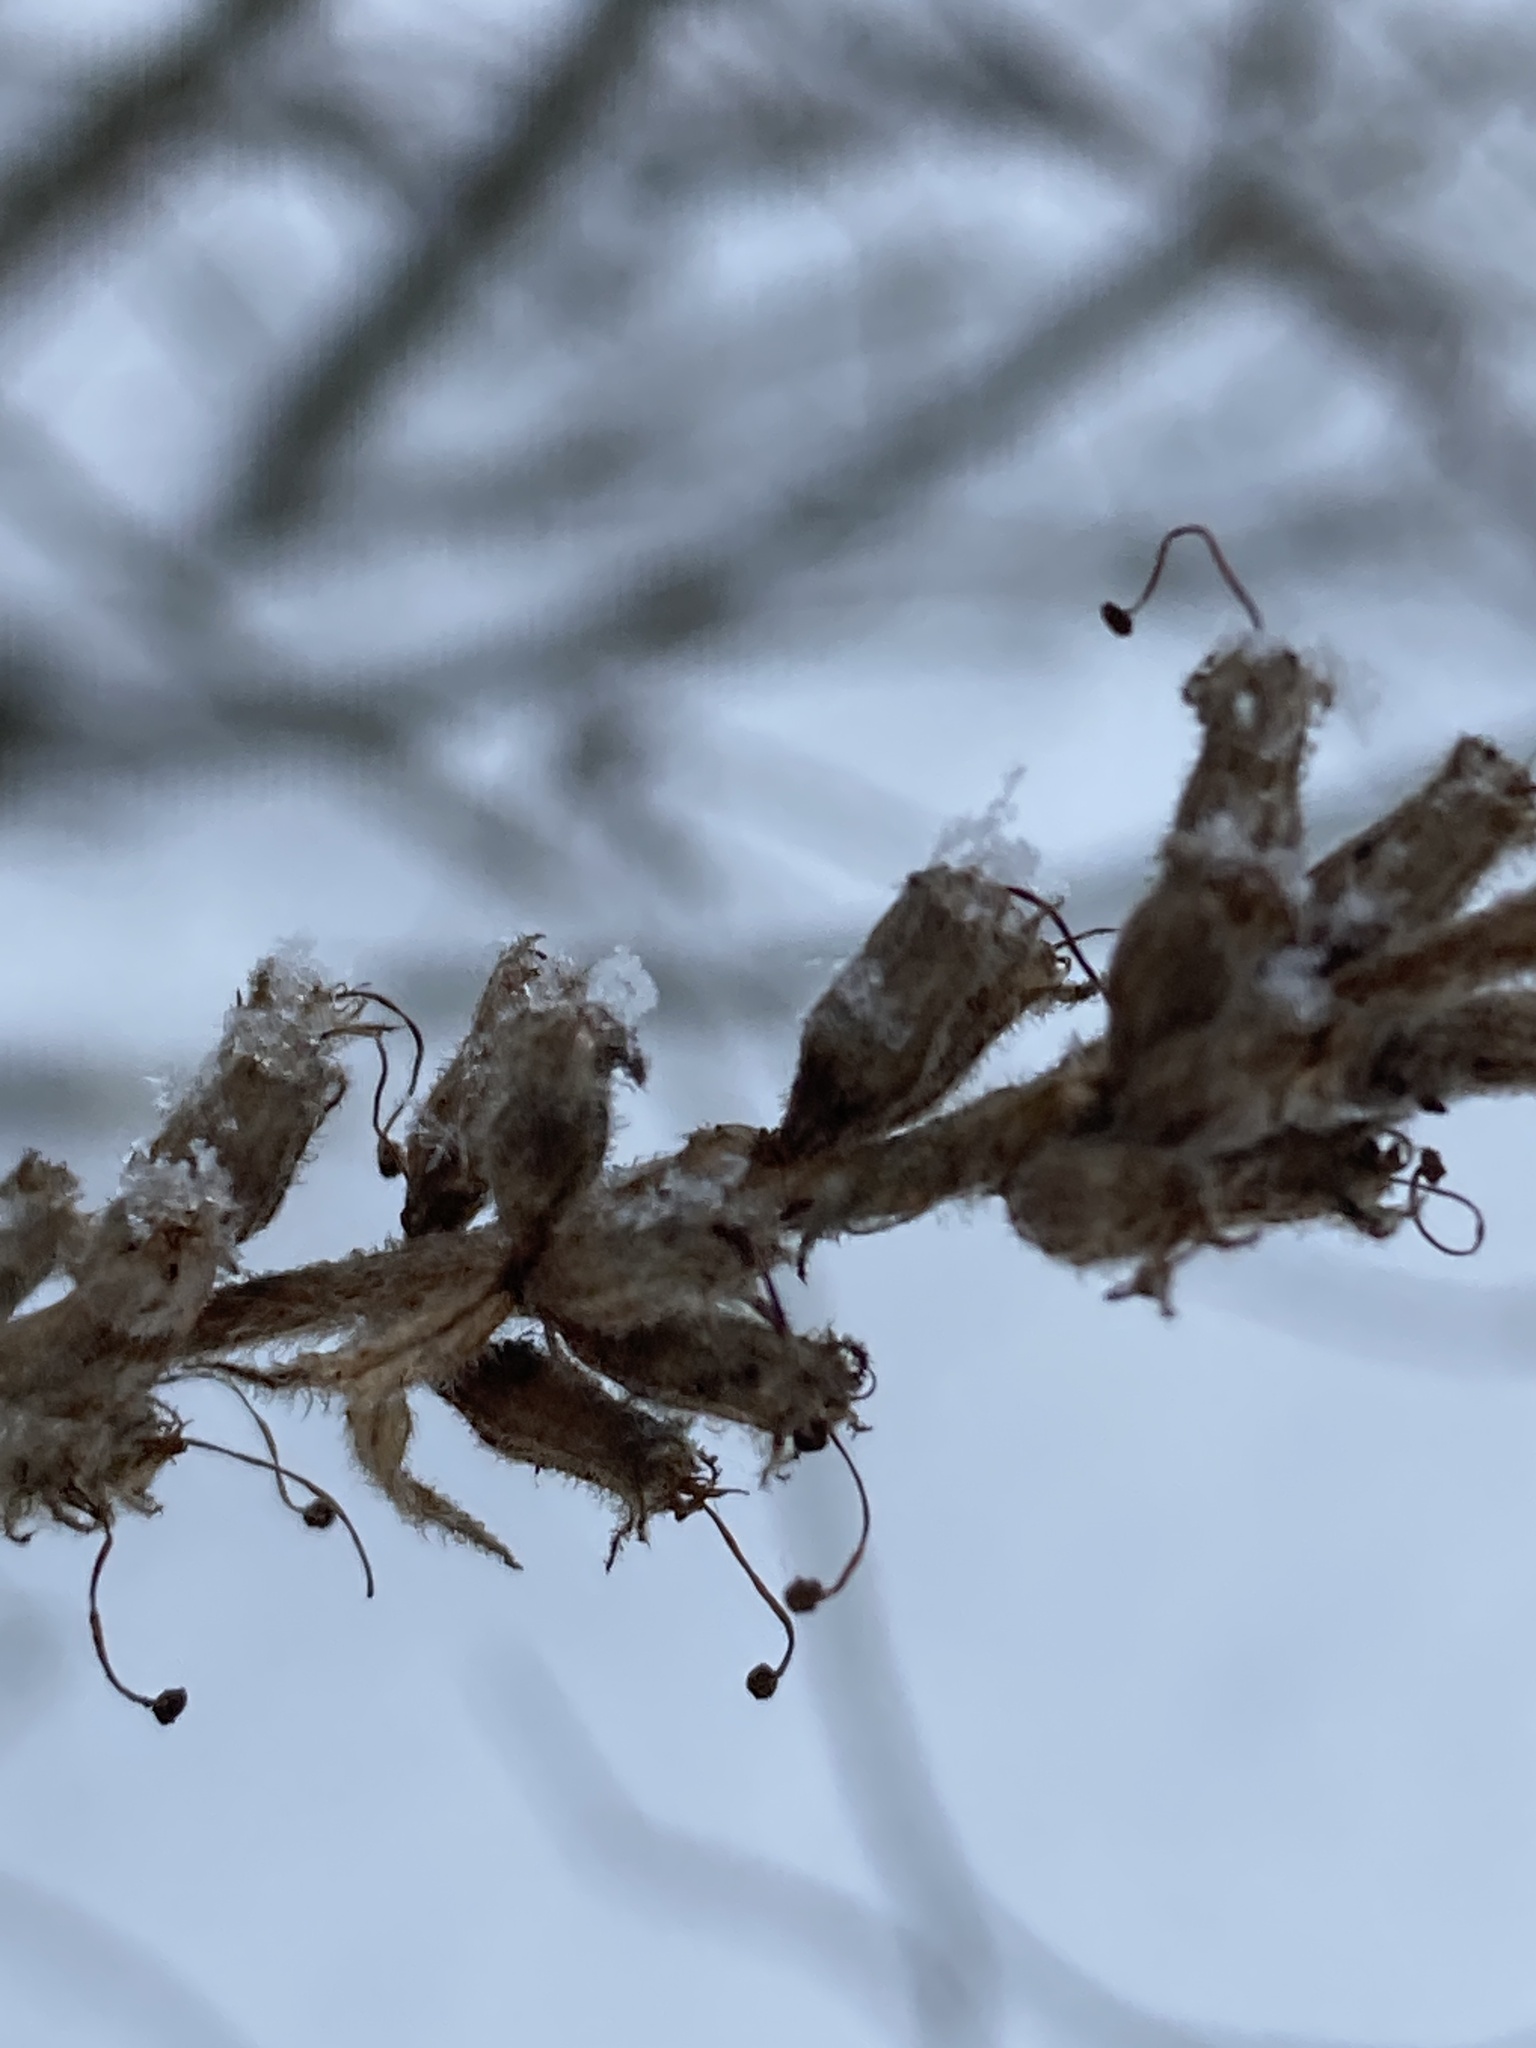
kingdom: Plantae
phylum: Tracheophyta
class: Magnoliopsida
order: Myrtales
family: Lythraceae
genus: Lythrum
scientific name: Lythrum salicaria
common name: Purple loosestrife
